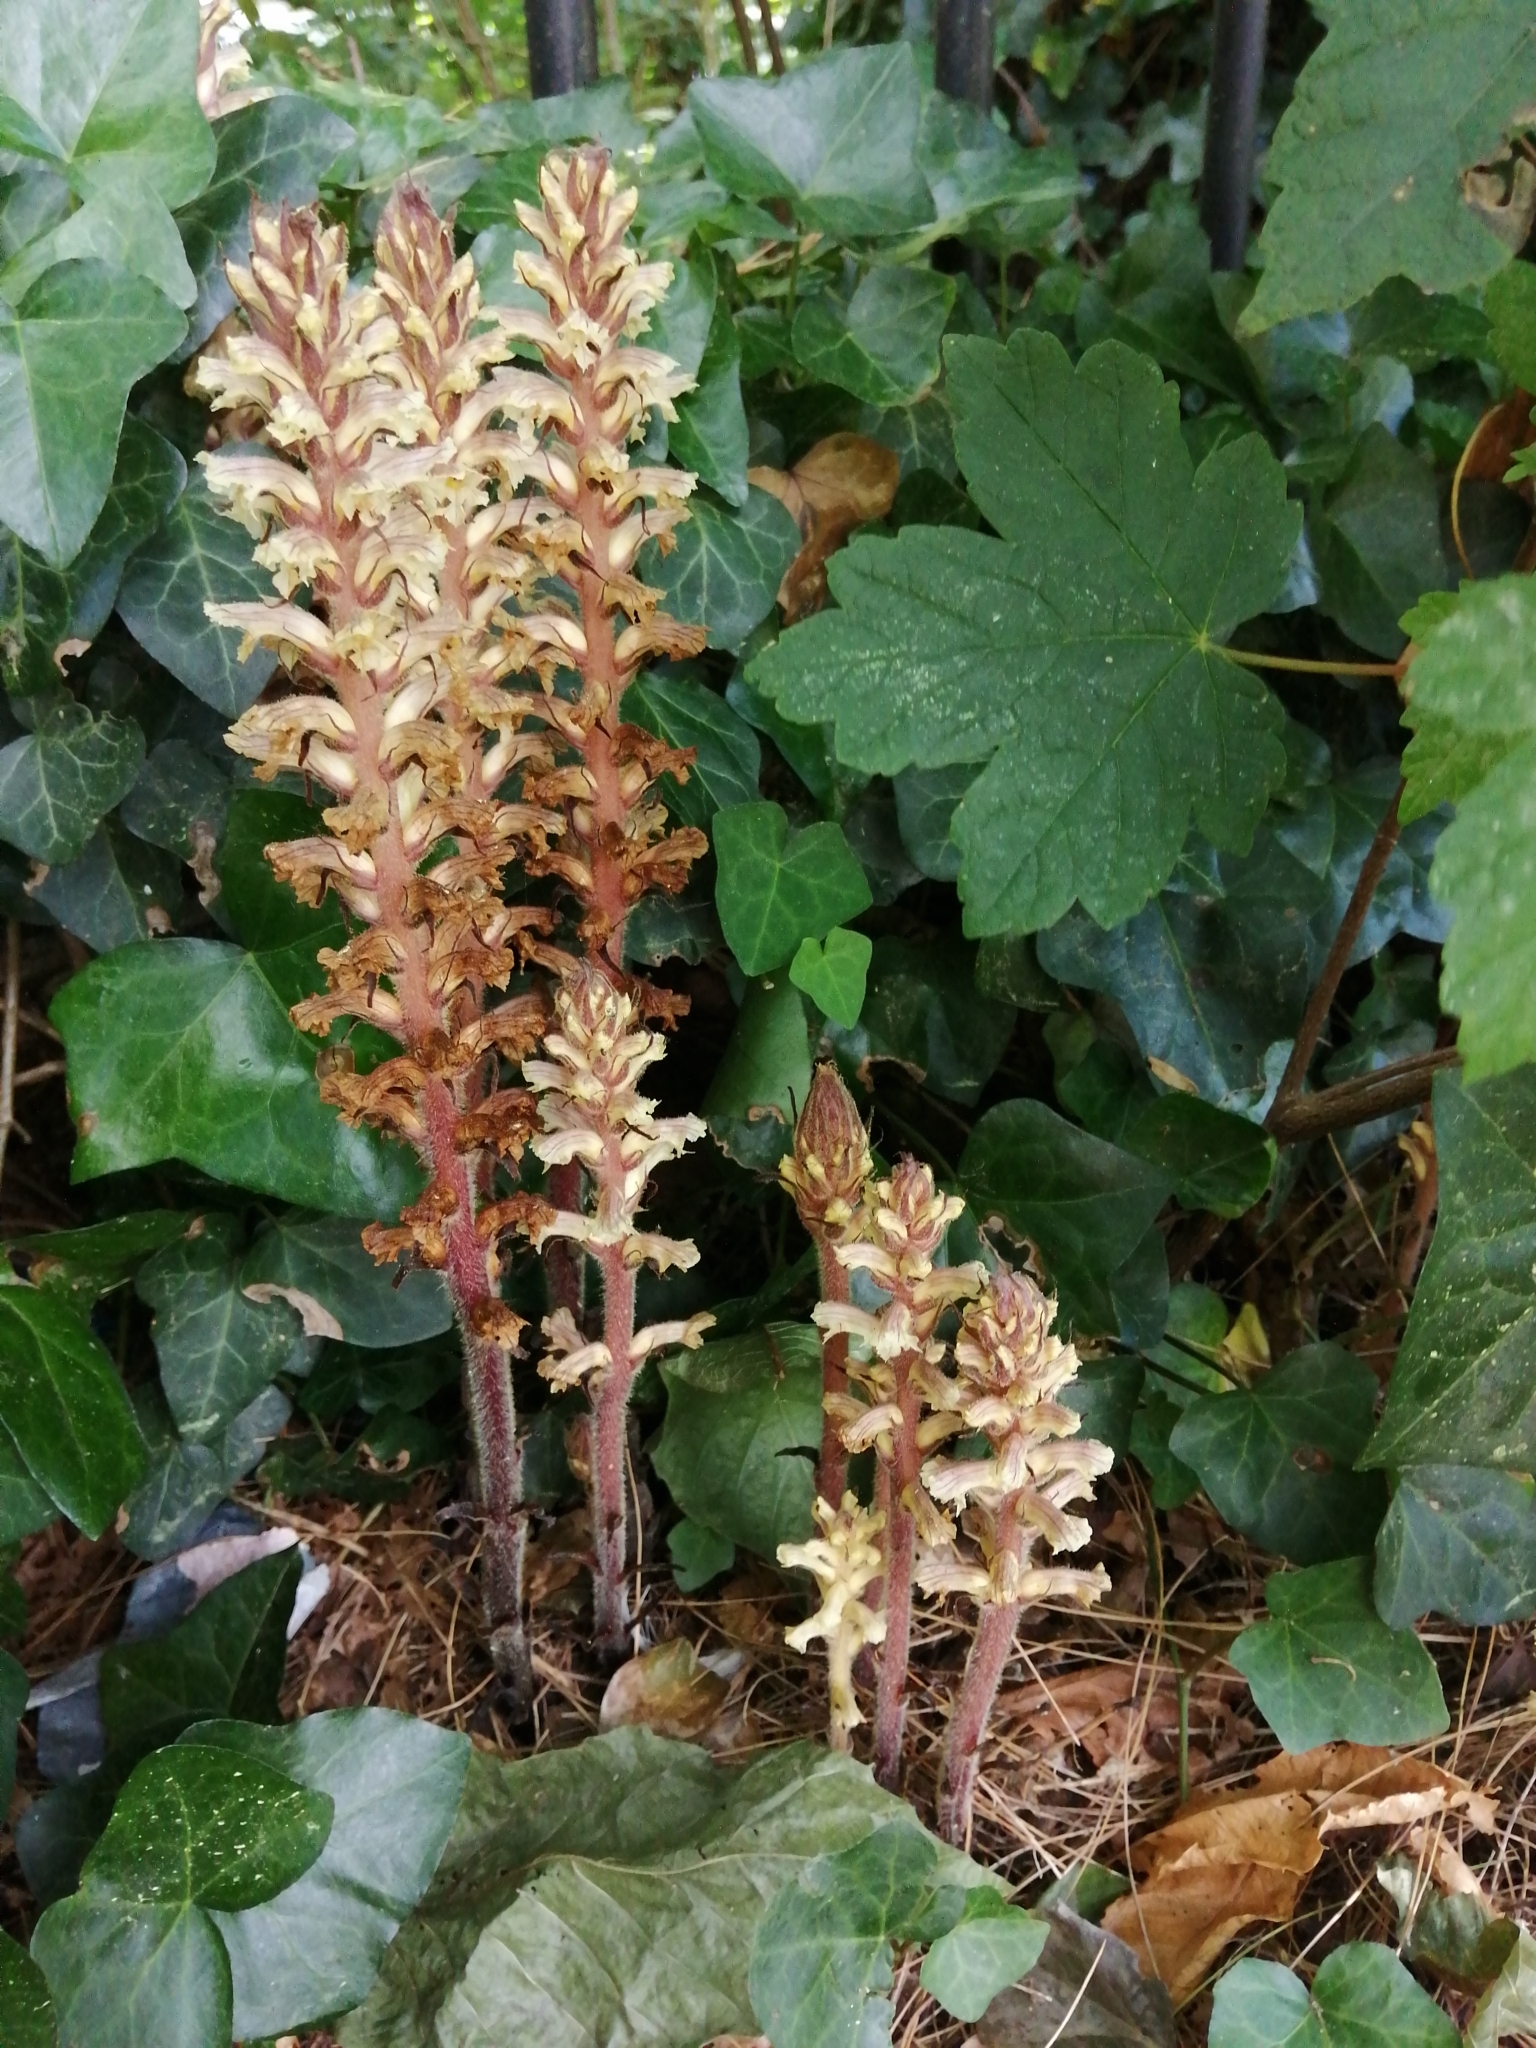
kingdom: Plantae
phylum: Tracheophyta
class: Magnoliopsida
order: Lamiales
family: Orobanchaceae
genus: Orobanche
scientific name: Orobanche hederae
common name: Ivy broomrape
